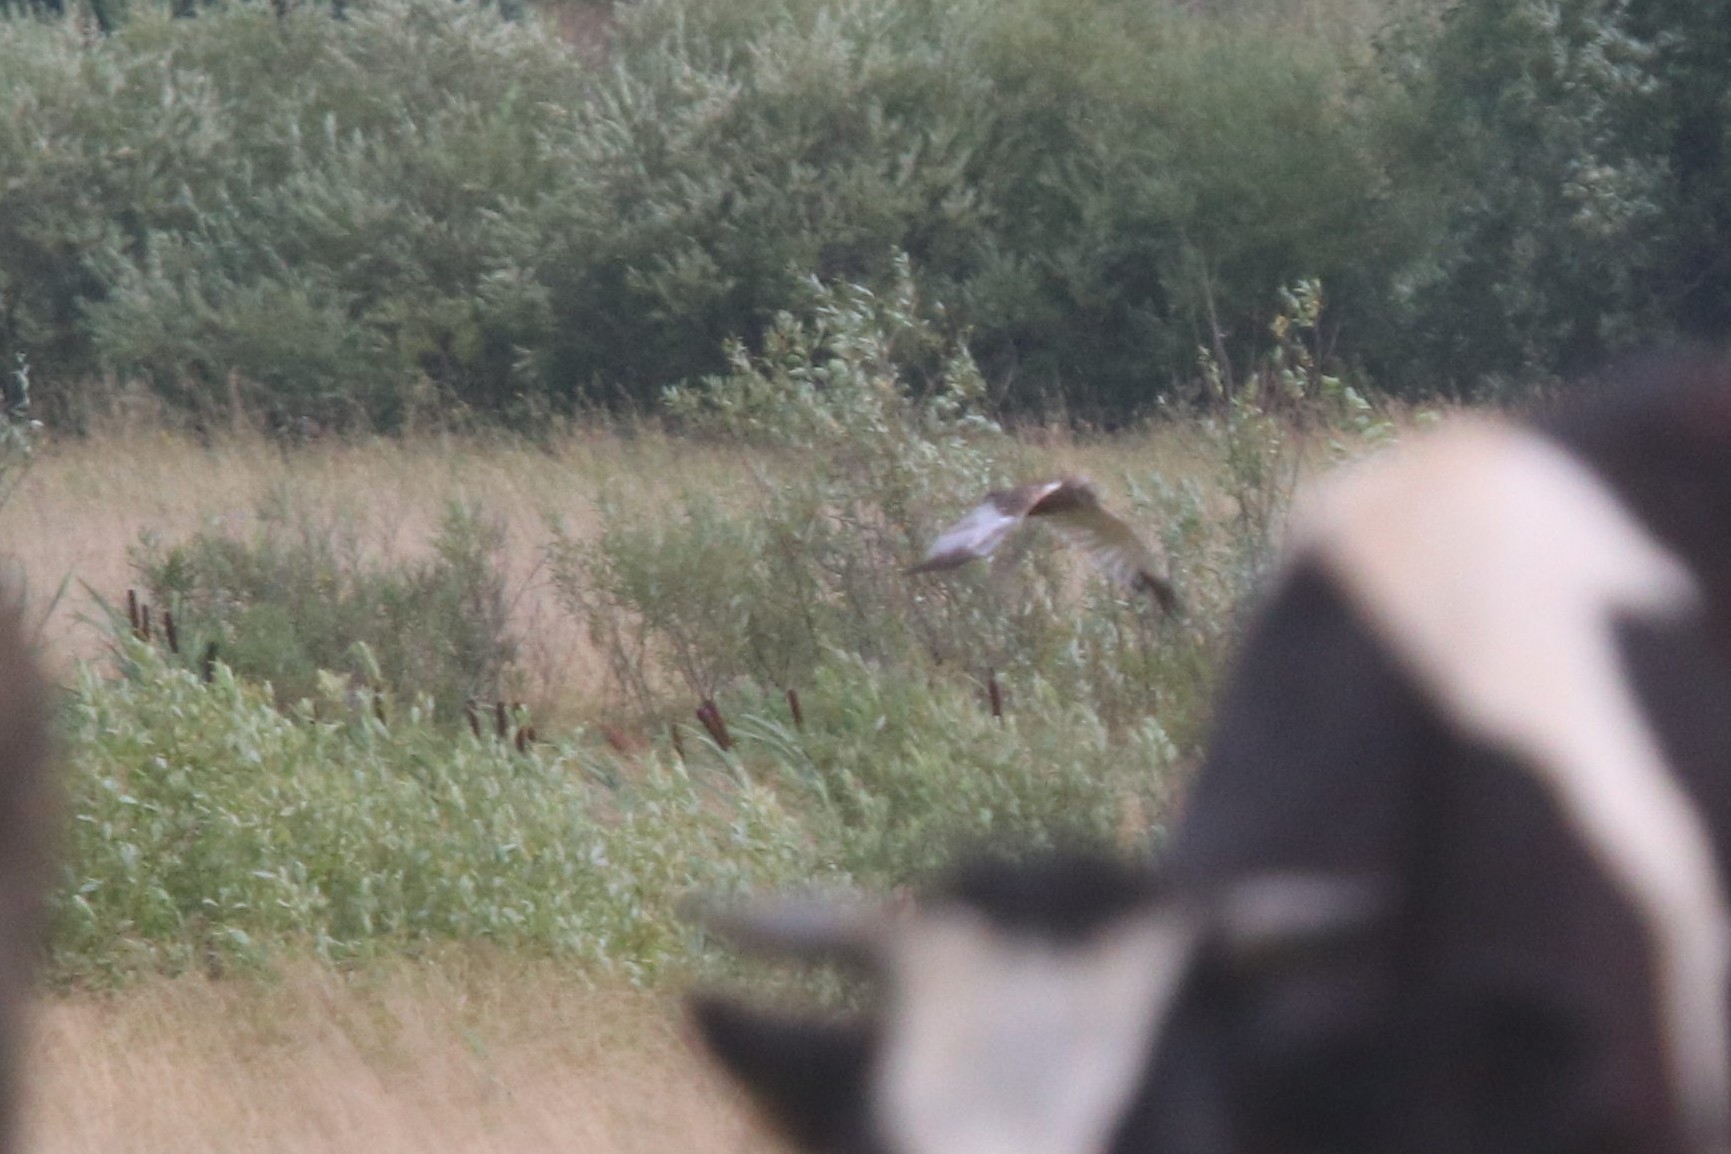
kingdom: Animalia
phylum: Chordata
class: Aves
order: Accipitriformes
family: Accipitridae
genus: Circus
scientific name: Circus aeruginosus
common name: Western marsh harrier
